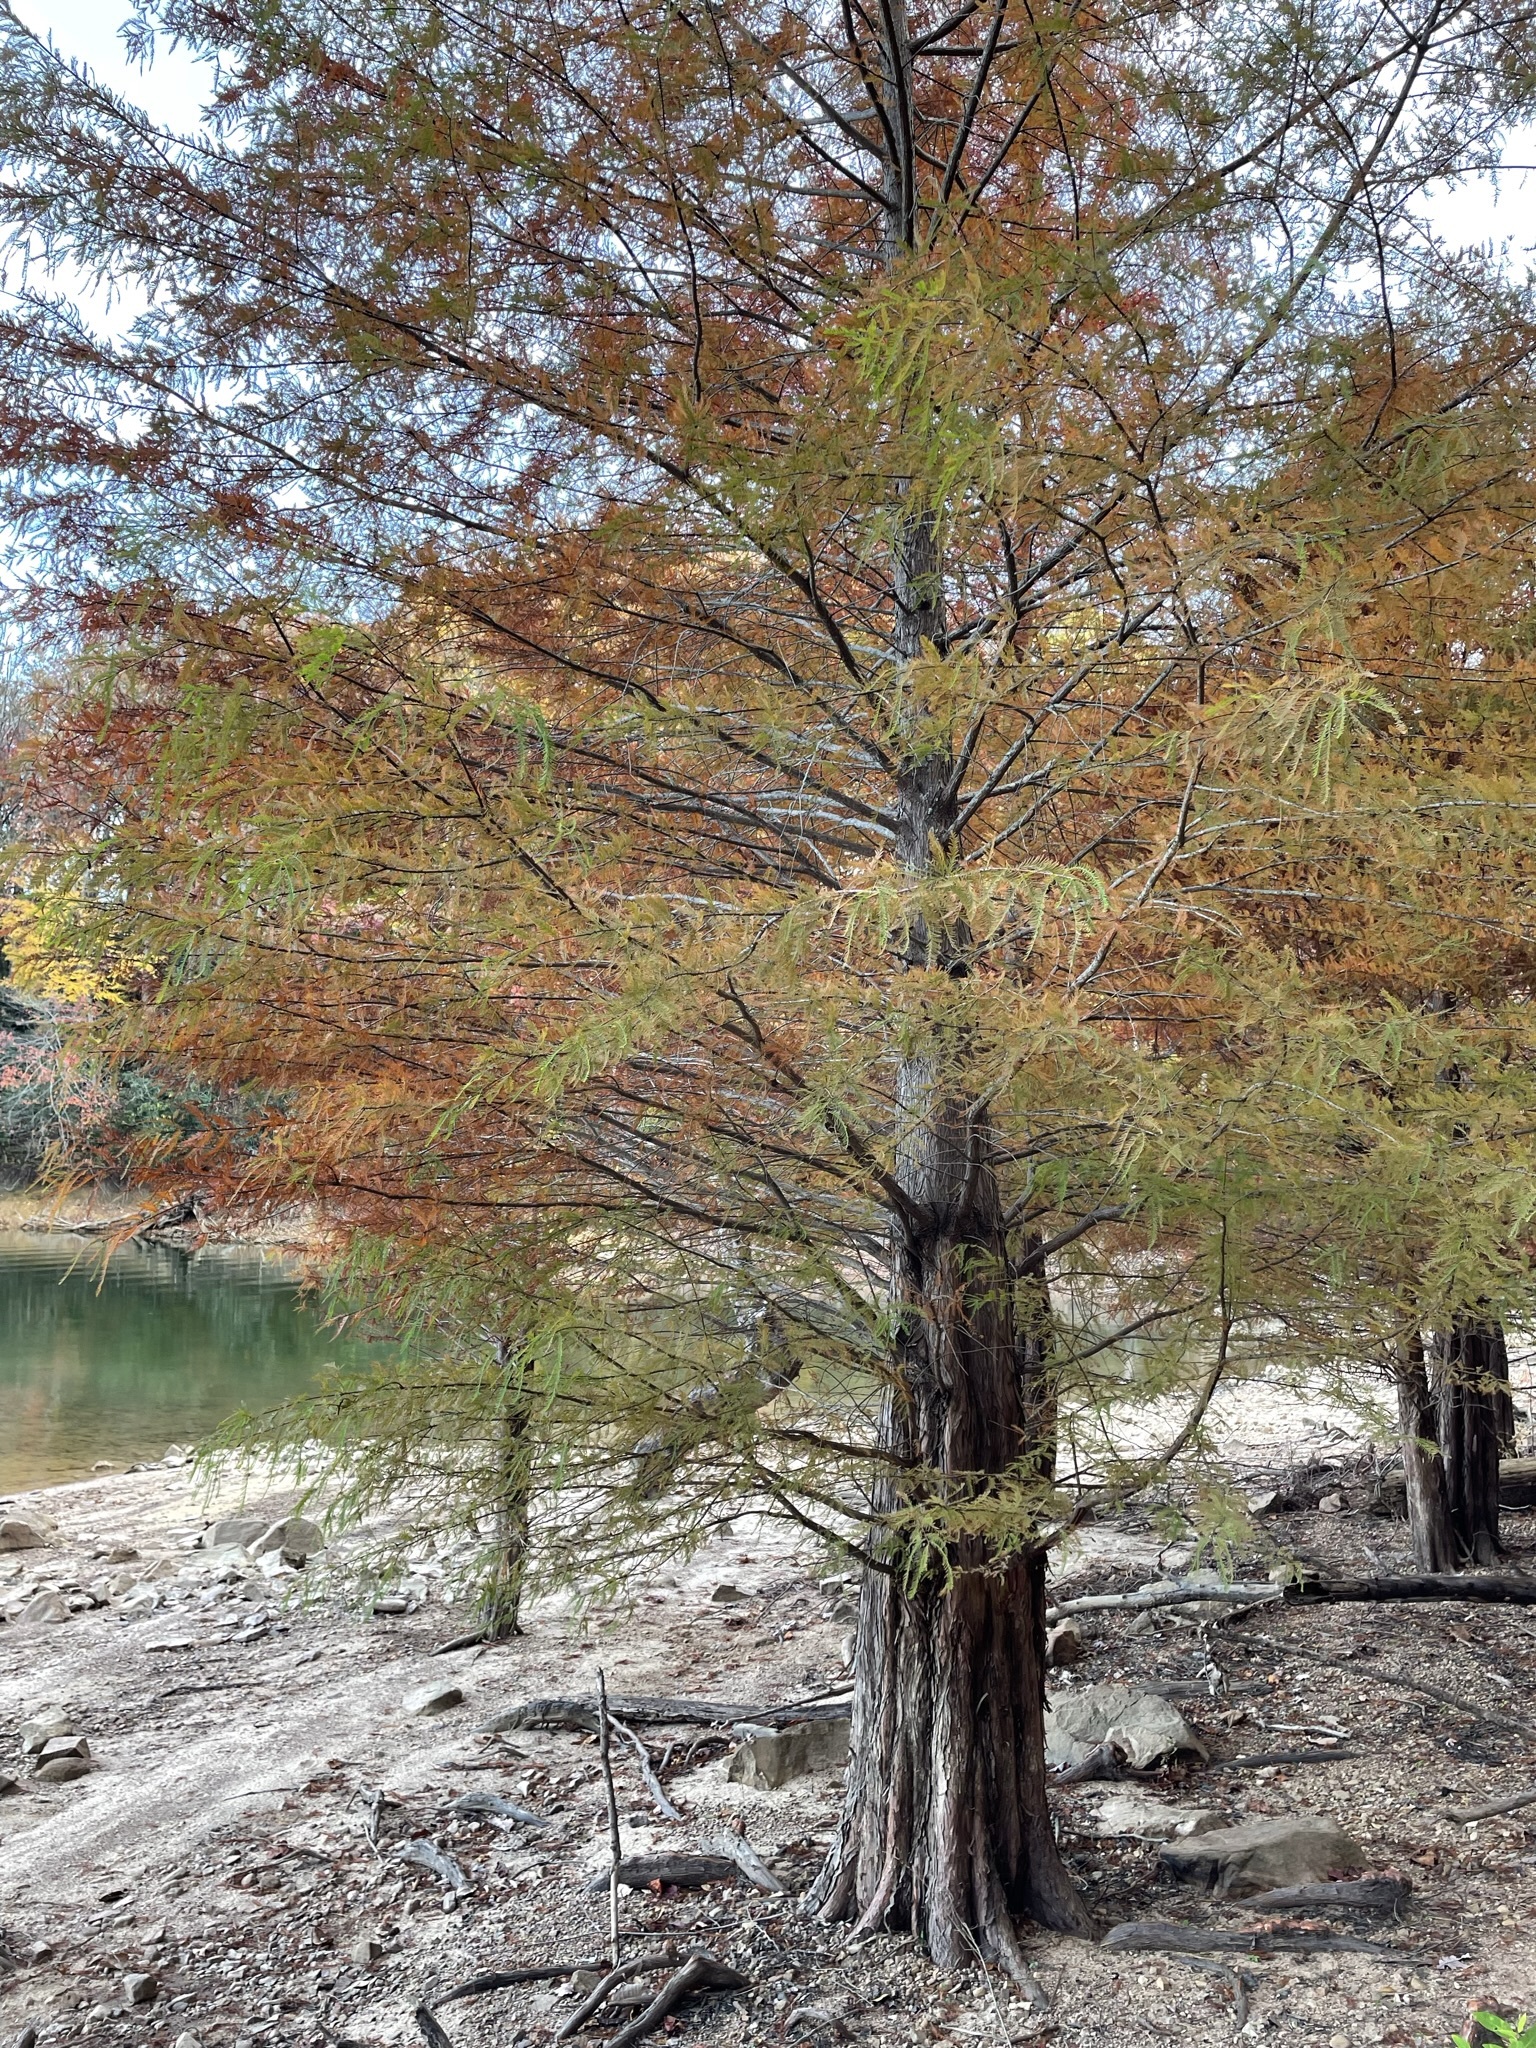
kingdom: Plantae
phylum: Tracheophyta
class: Pinopsida
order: Pinales
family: Cupressaceae
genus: Taxodium
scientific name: Taxodium distichum
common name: Bald cypress
